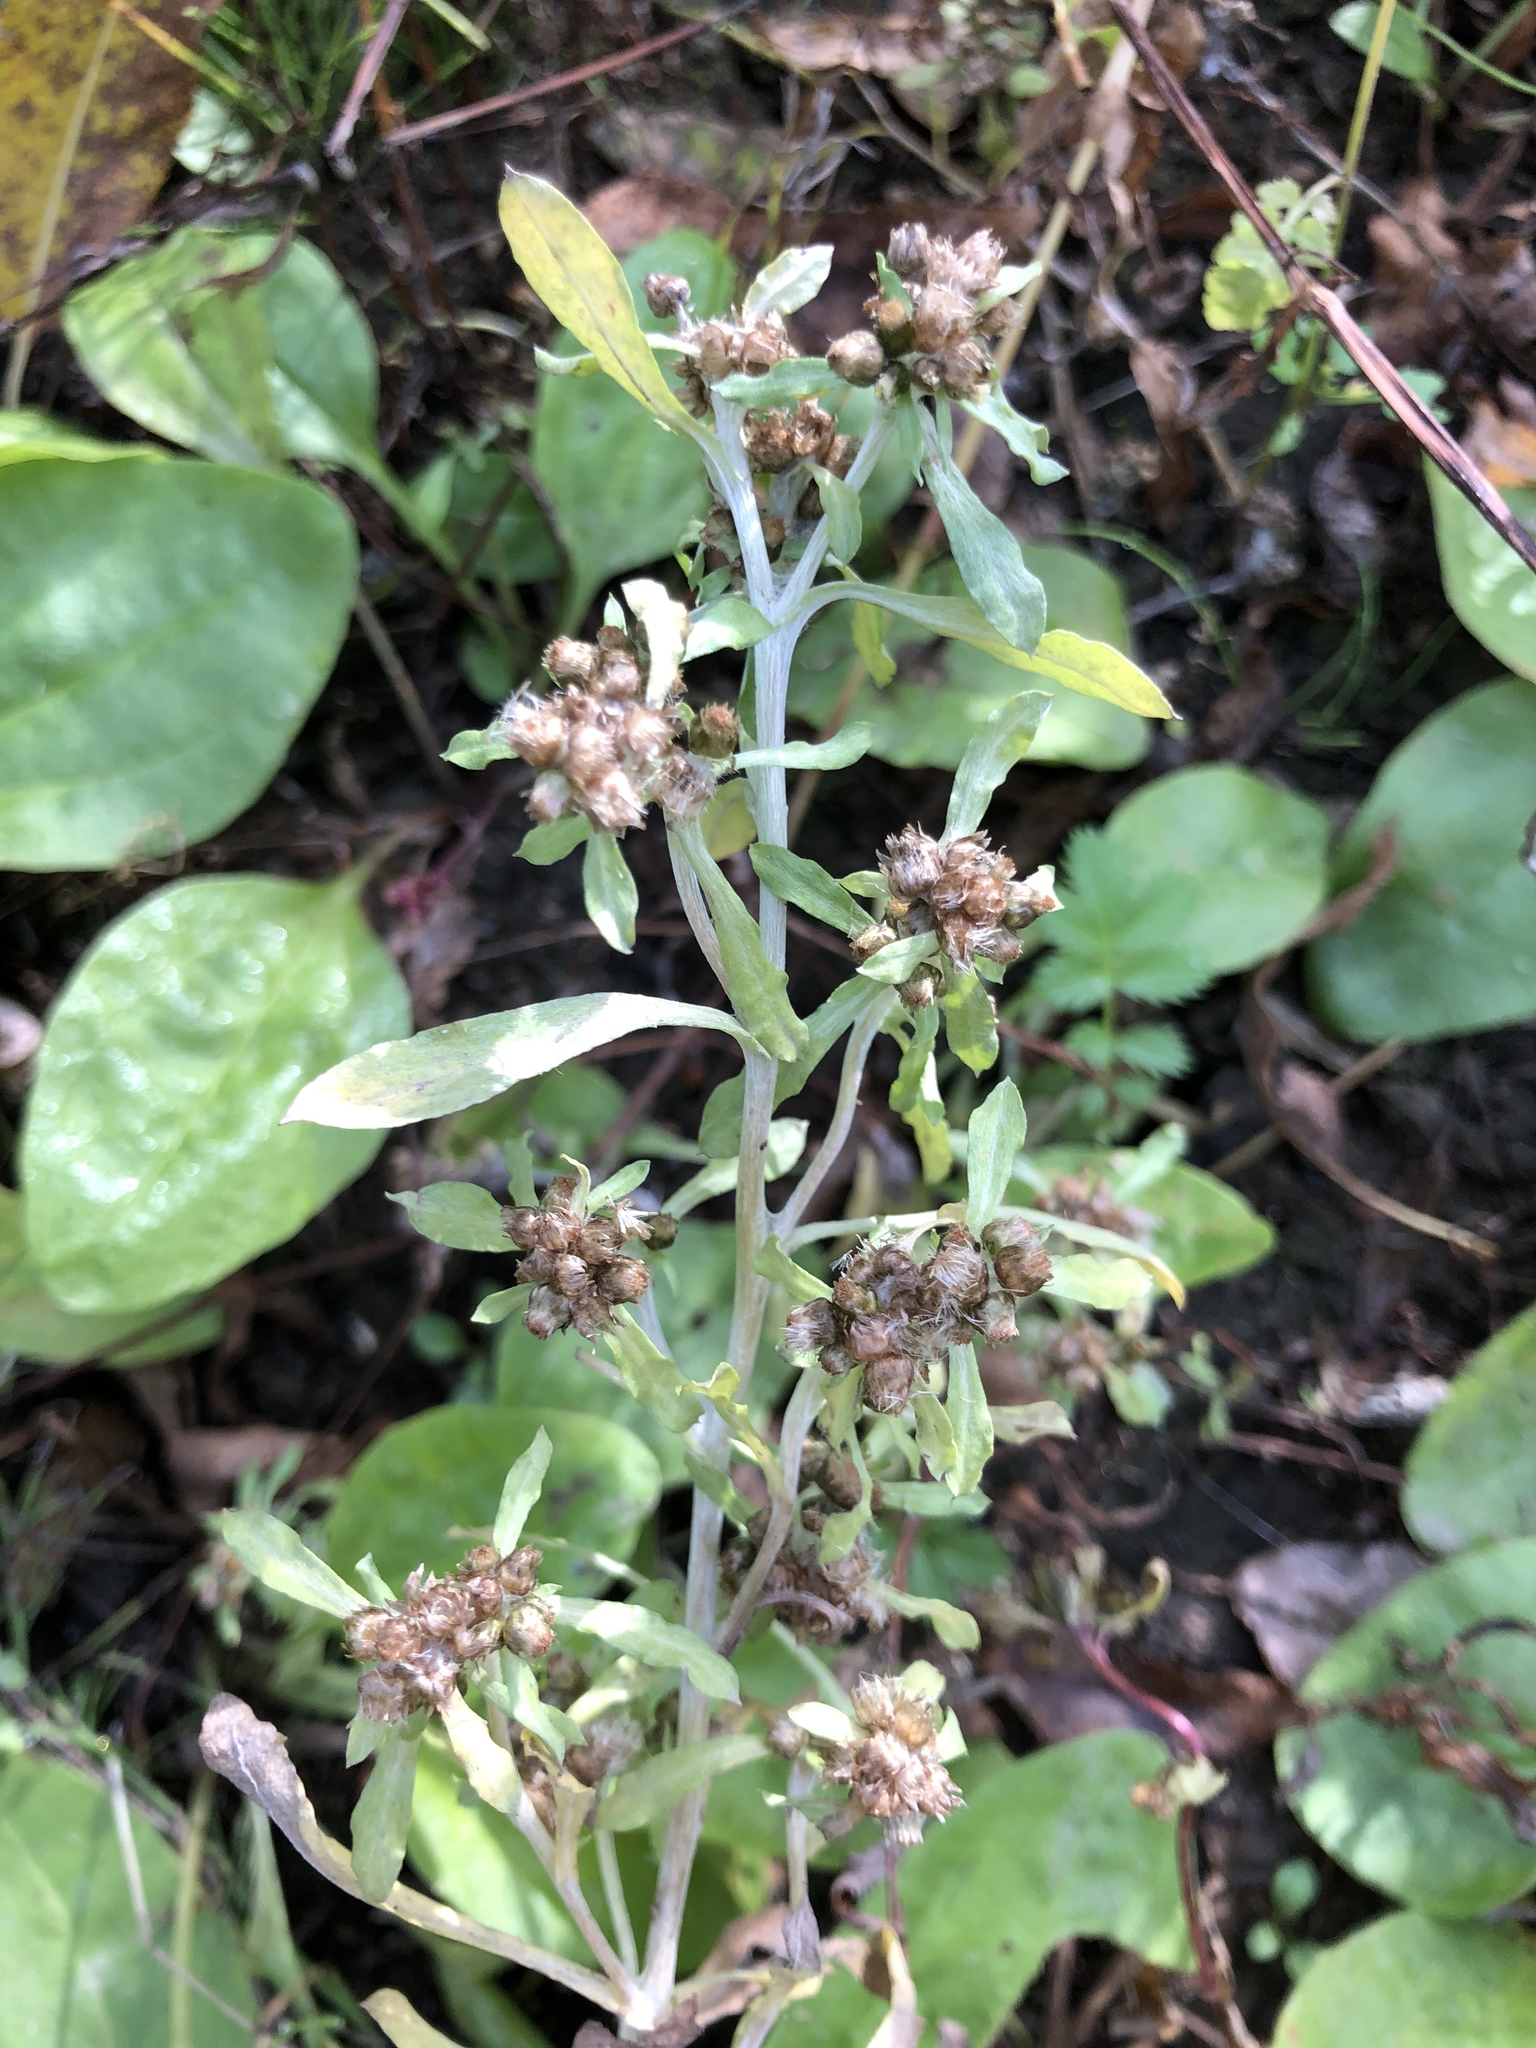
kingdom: Plantae
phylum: Tracheophyta
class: Magnoliopsida
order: Asterales
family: Asteraceae
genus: Gnaphalium
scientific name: Gnaphalium uliginosum
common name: Marsh cudweed
